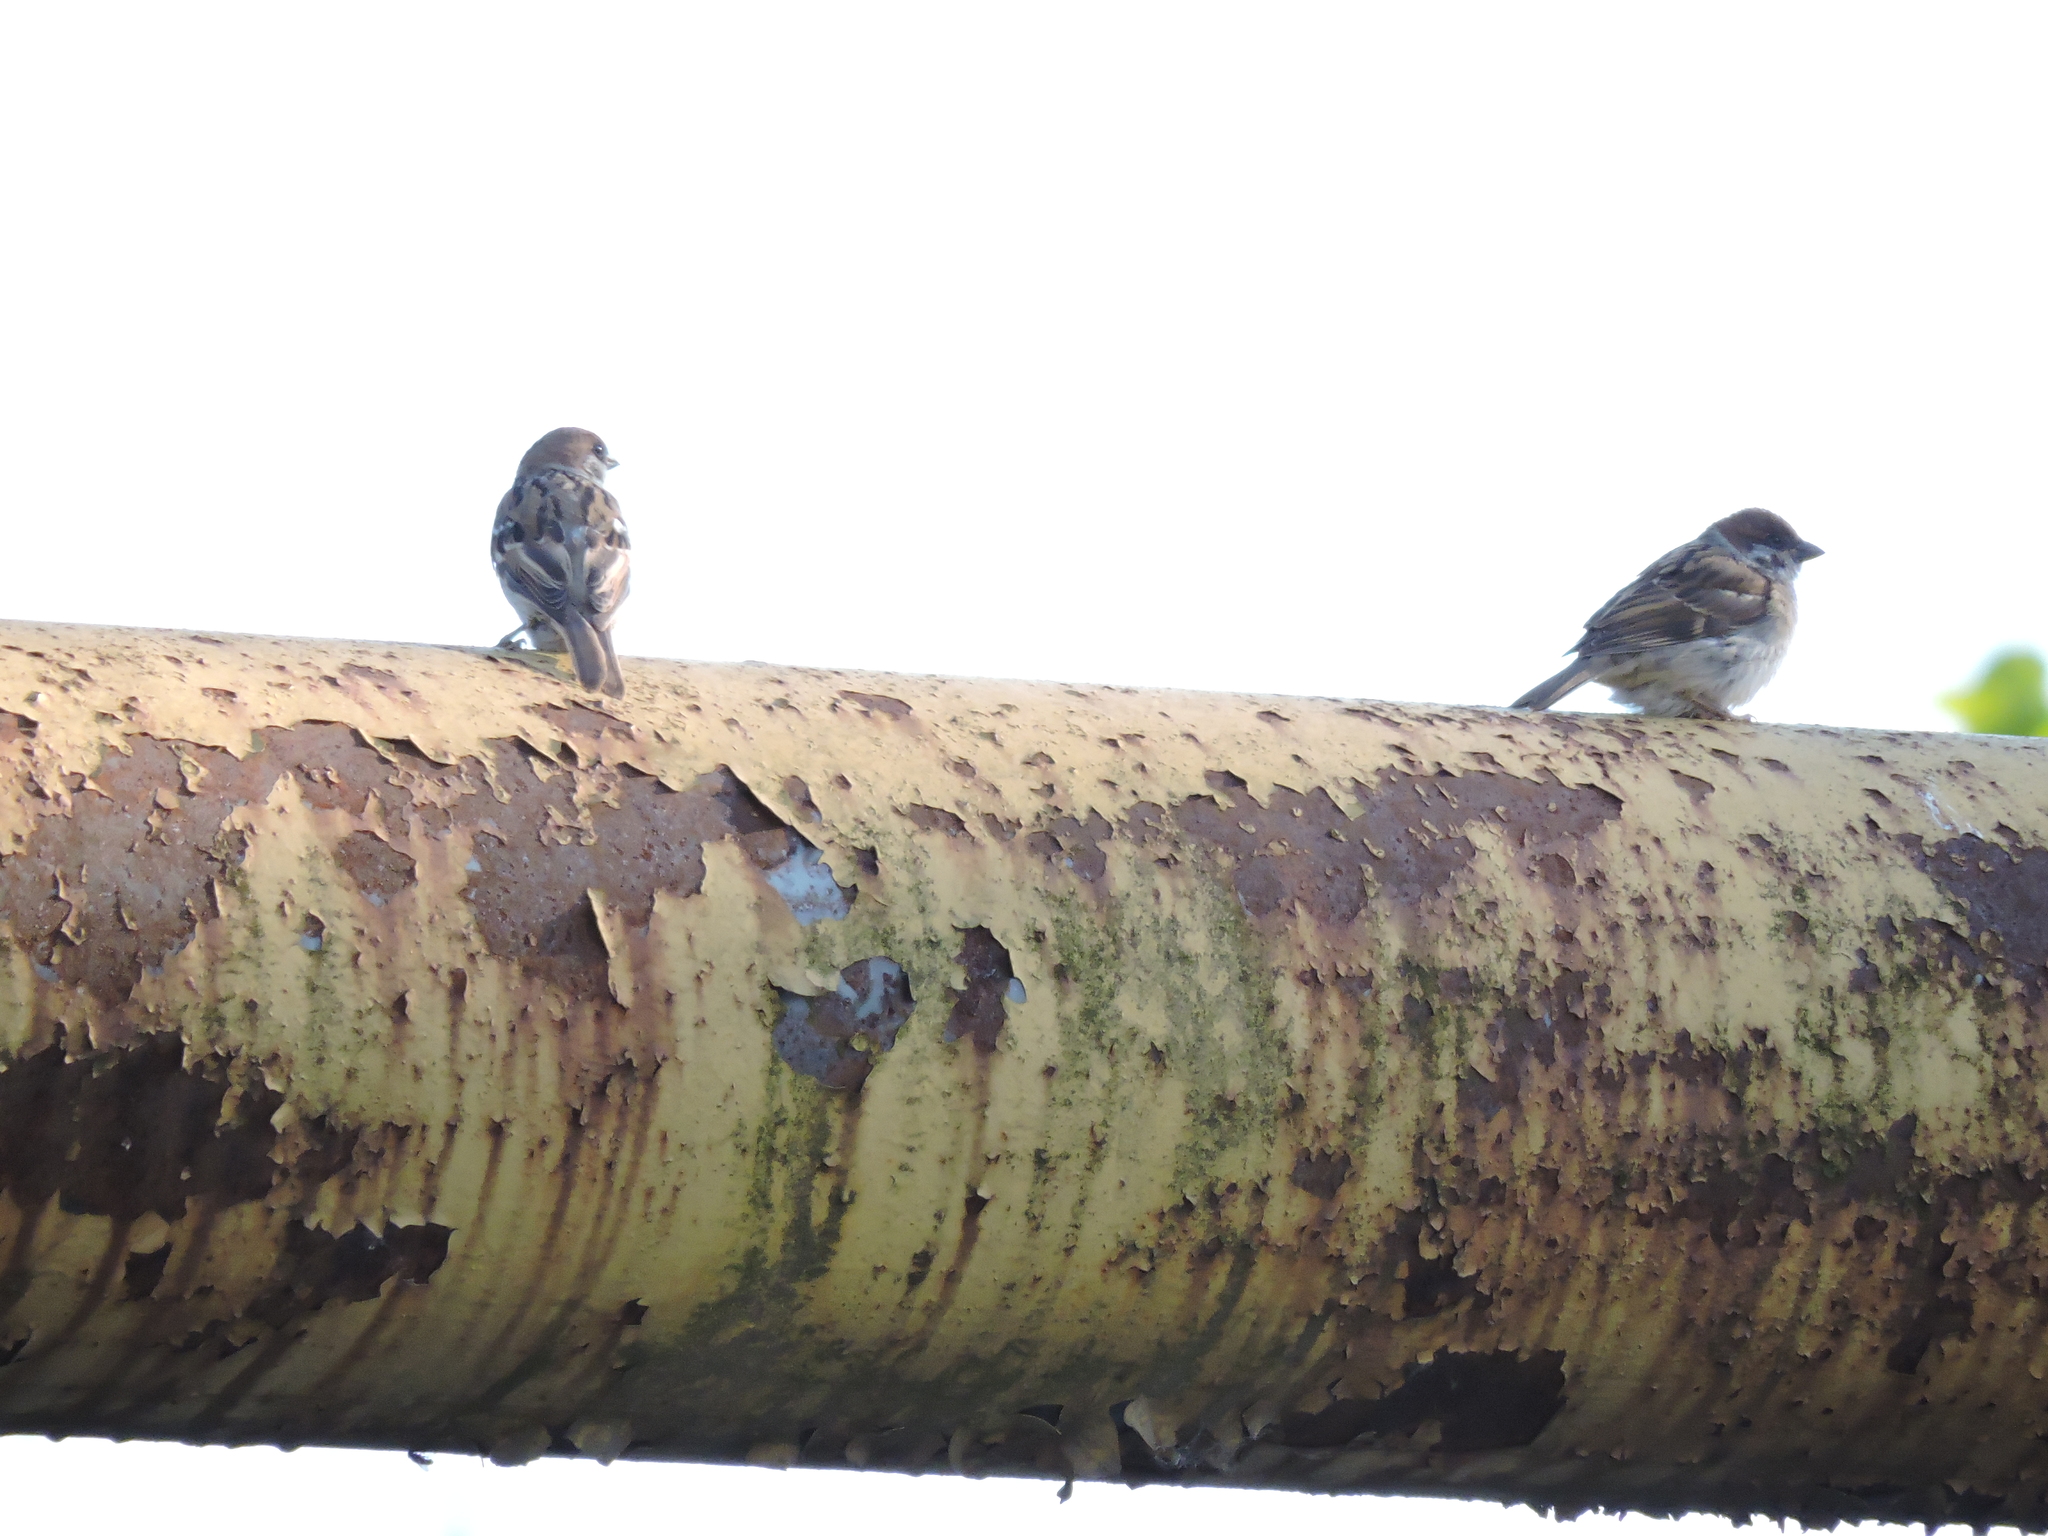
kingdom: Animalia
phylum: Chordata
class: Aves
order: Passeriformes
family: Passeridae
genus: Passer
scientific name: Passer montanus
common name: Eurasian tree sparrow
